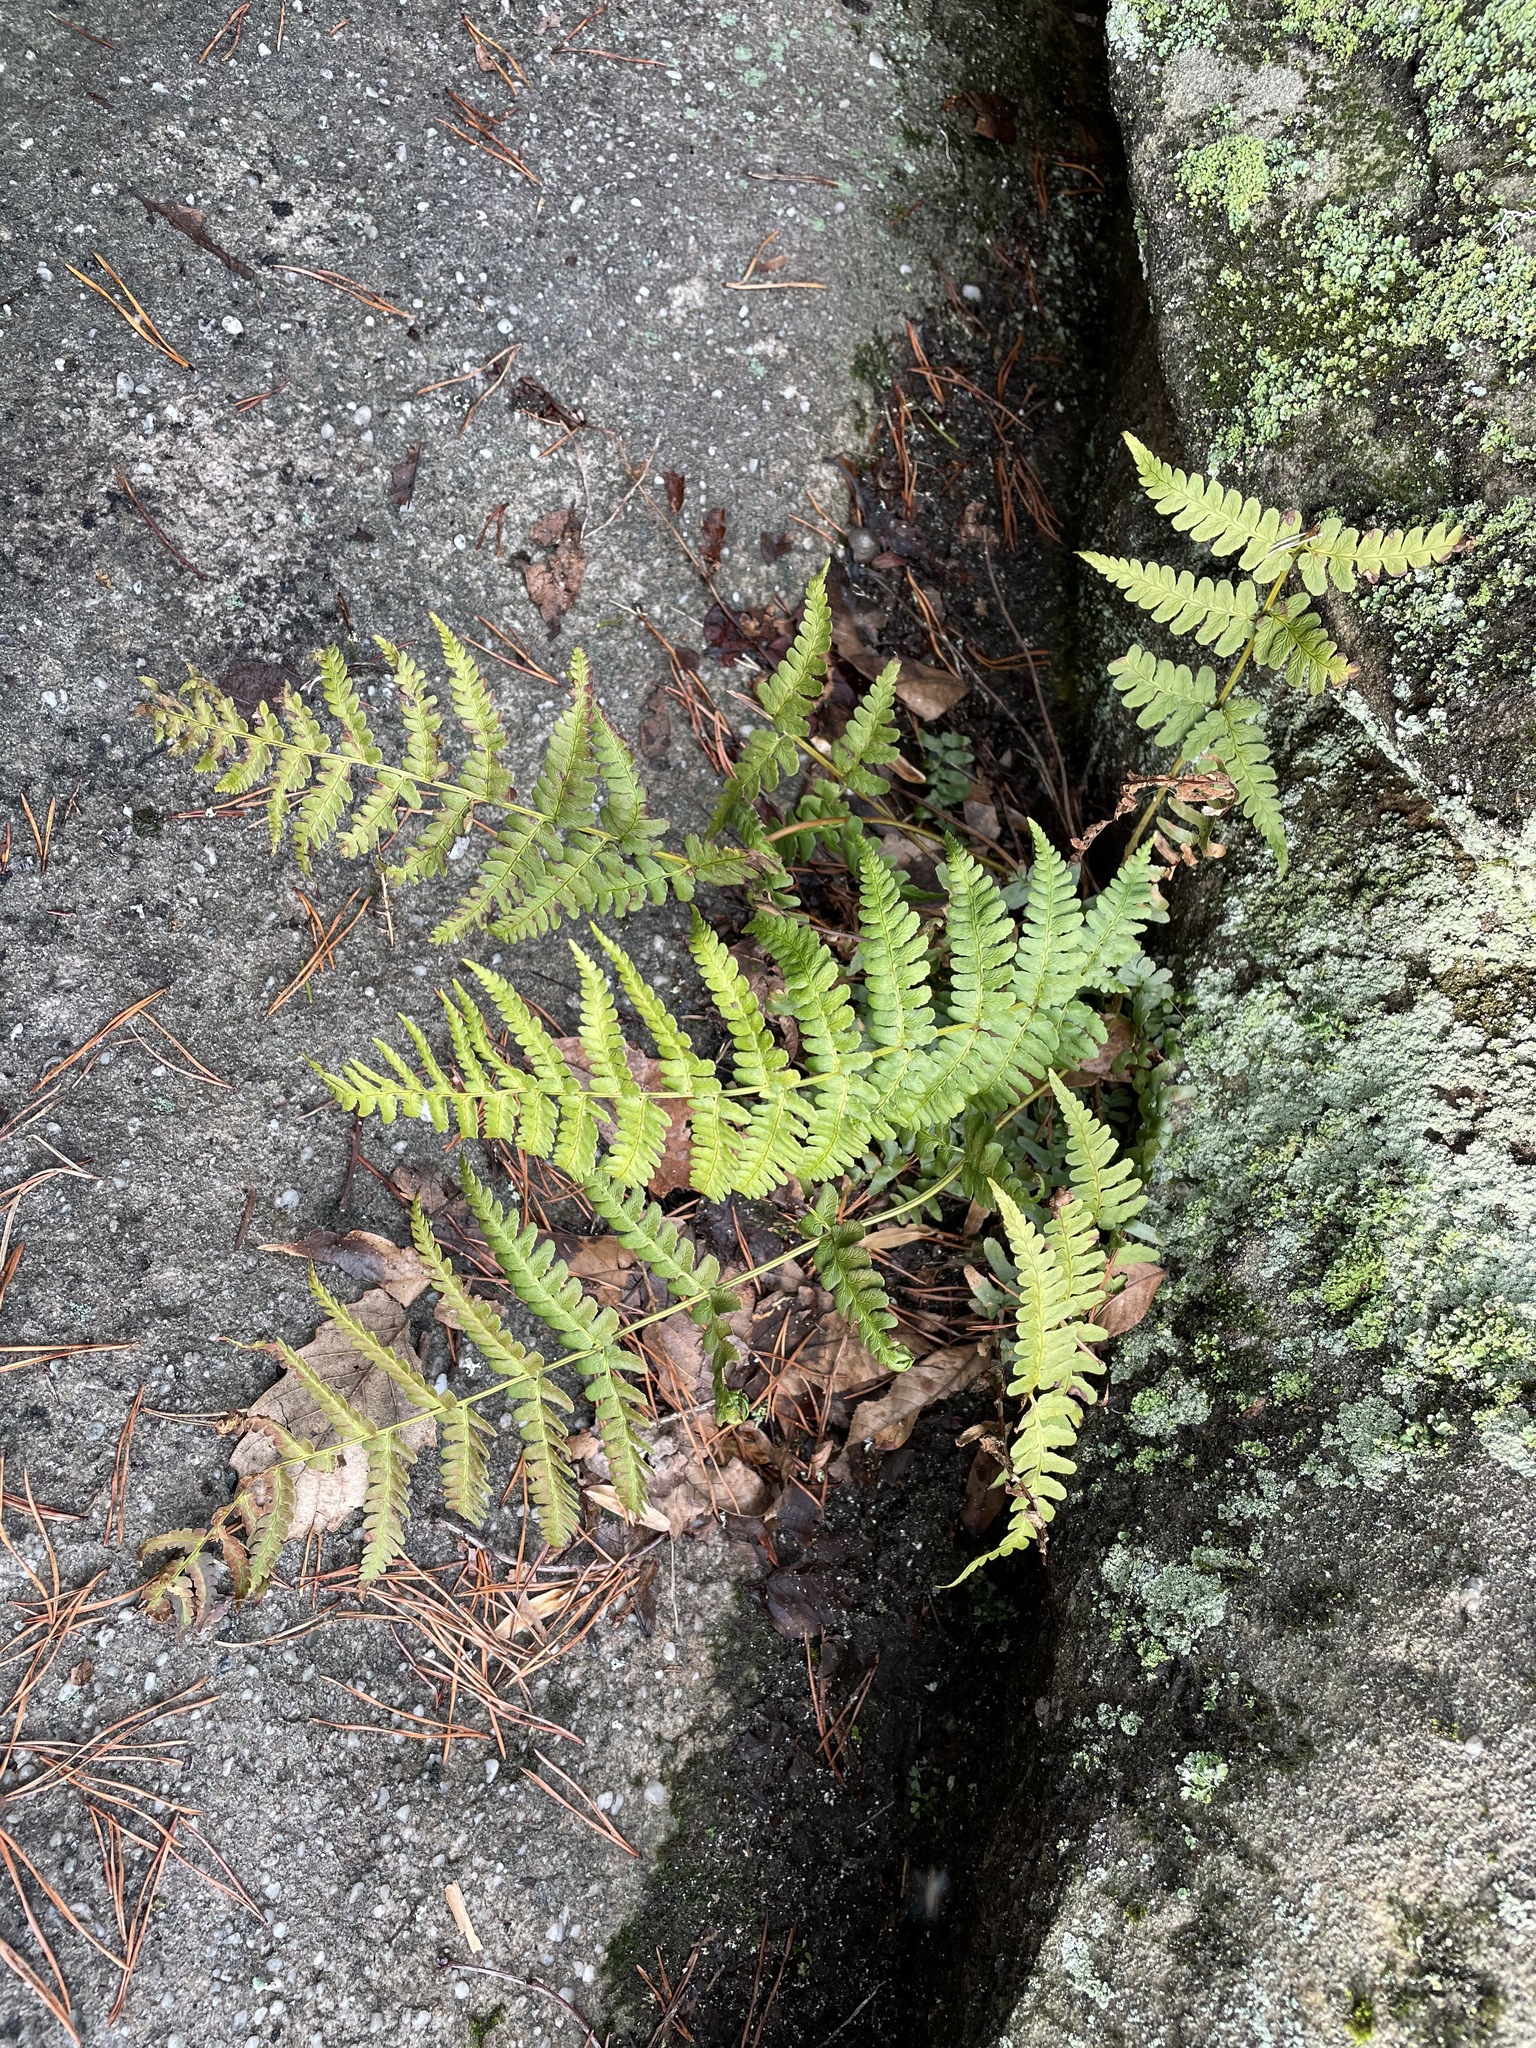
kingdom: Plantae
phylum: Tracheophyta
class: Polypodiopsida
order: Polypodiales
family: Dryopteridaceae
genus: Dryopteris
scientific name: Dryopteris marginalis
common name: Marginal wood fern
